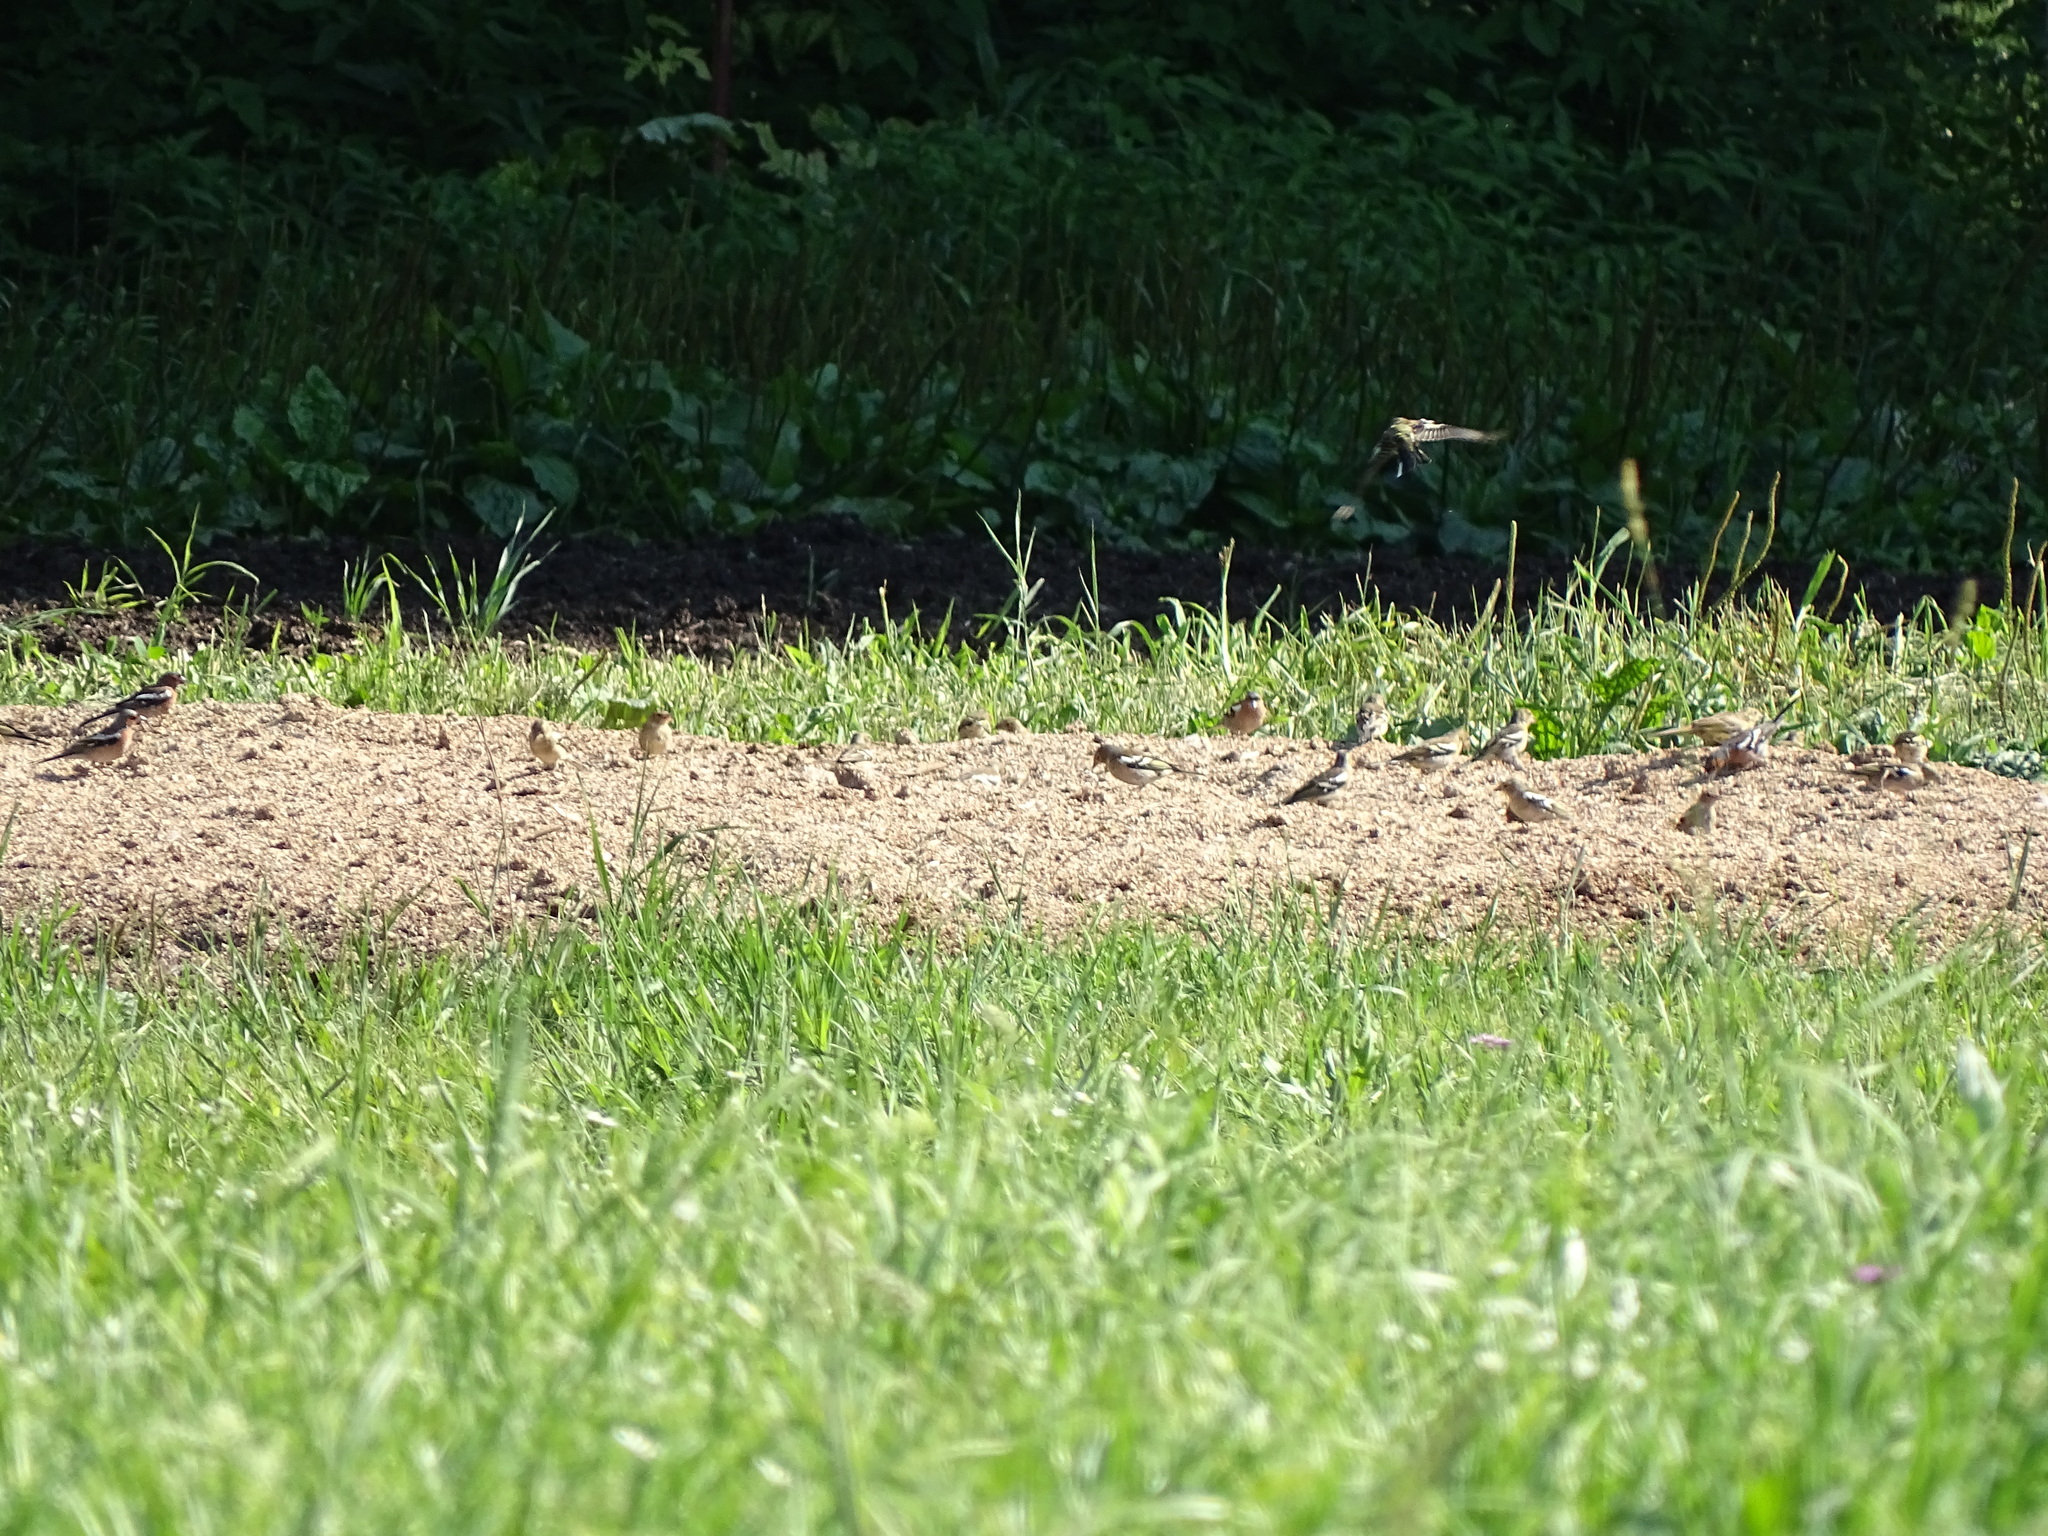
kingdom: Animalia
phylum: Chordata
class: Aves
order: Passeriformes
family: Fringillidae
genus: Fringilla
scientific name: Fringilla coelebs
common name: Common chaffinch
